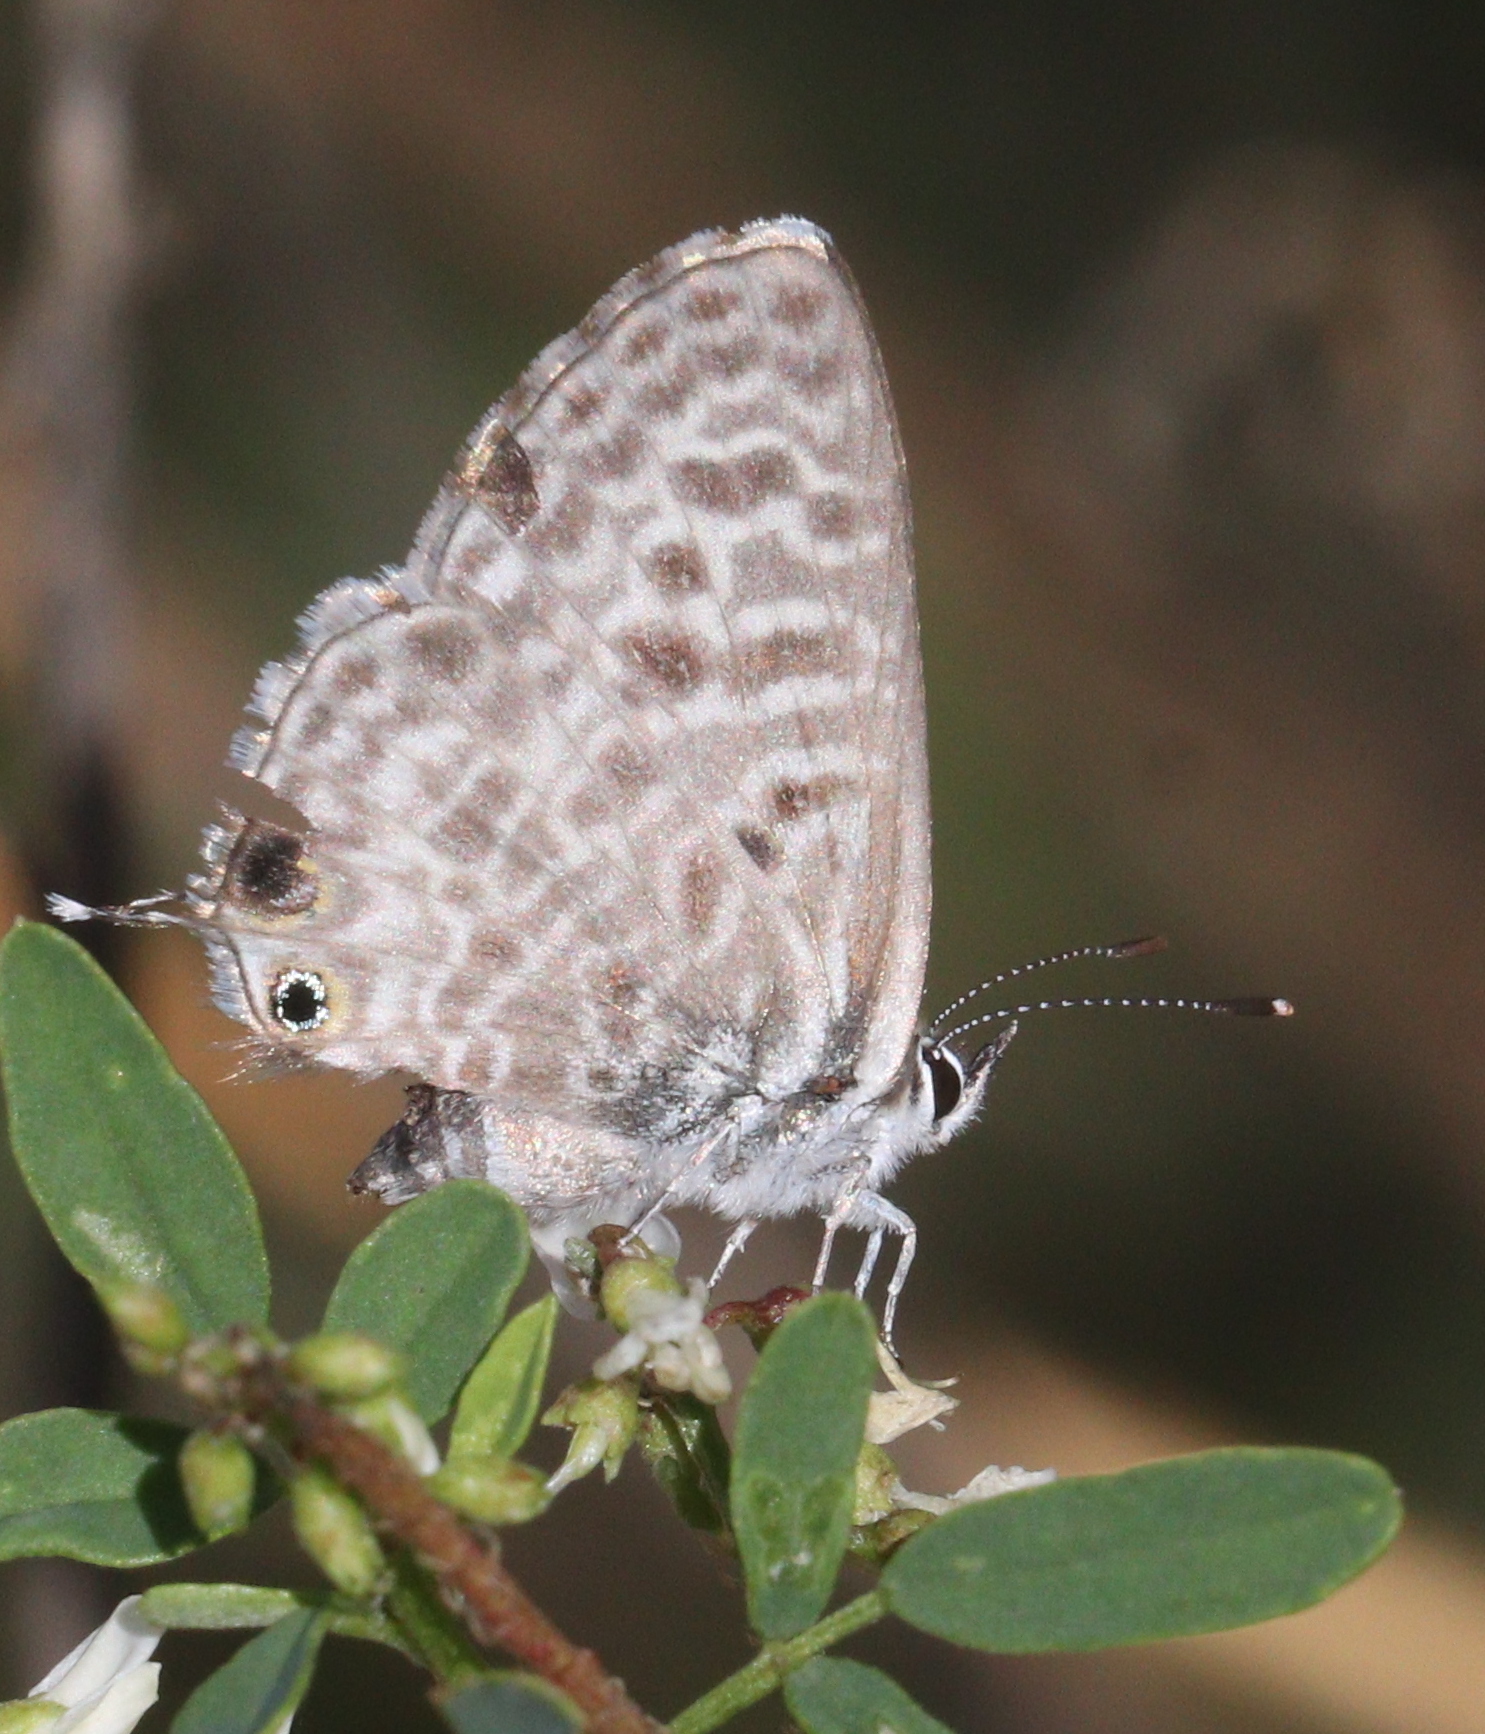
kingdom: Animalia
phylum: Arthropoda
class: Insecta
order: Lepidoptera
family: Lycaenidae
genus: Leptotes
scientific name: Leptotes pirithous
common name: Lang's short-tailed blue
